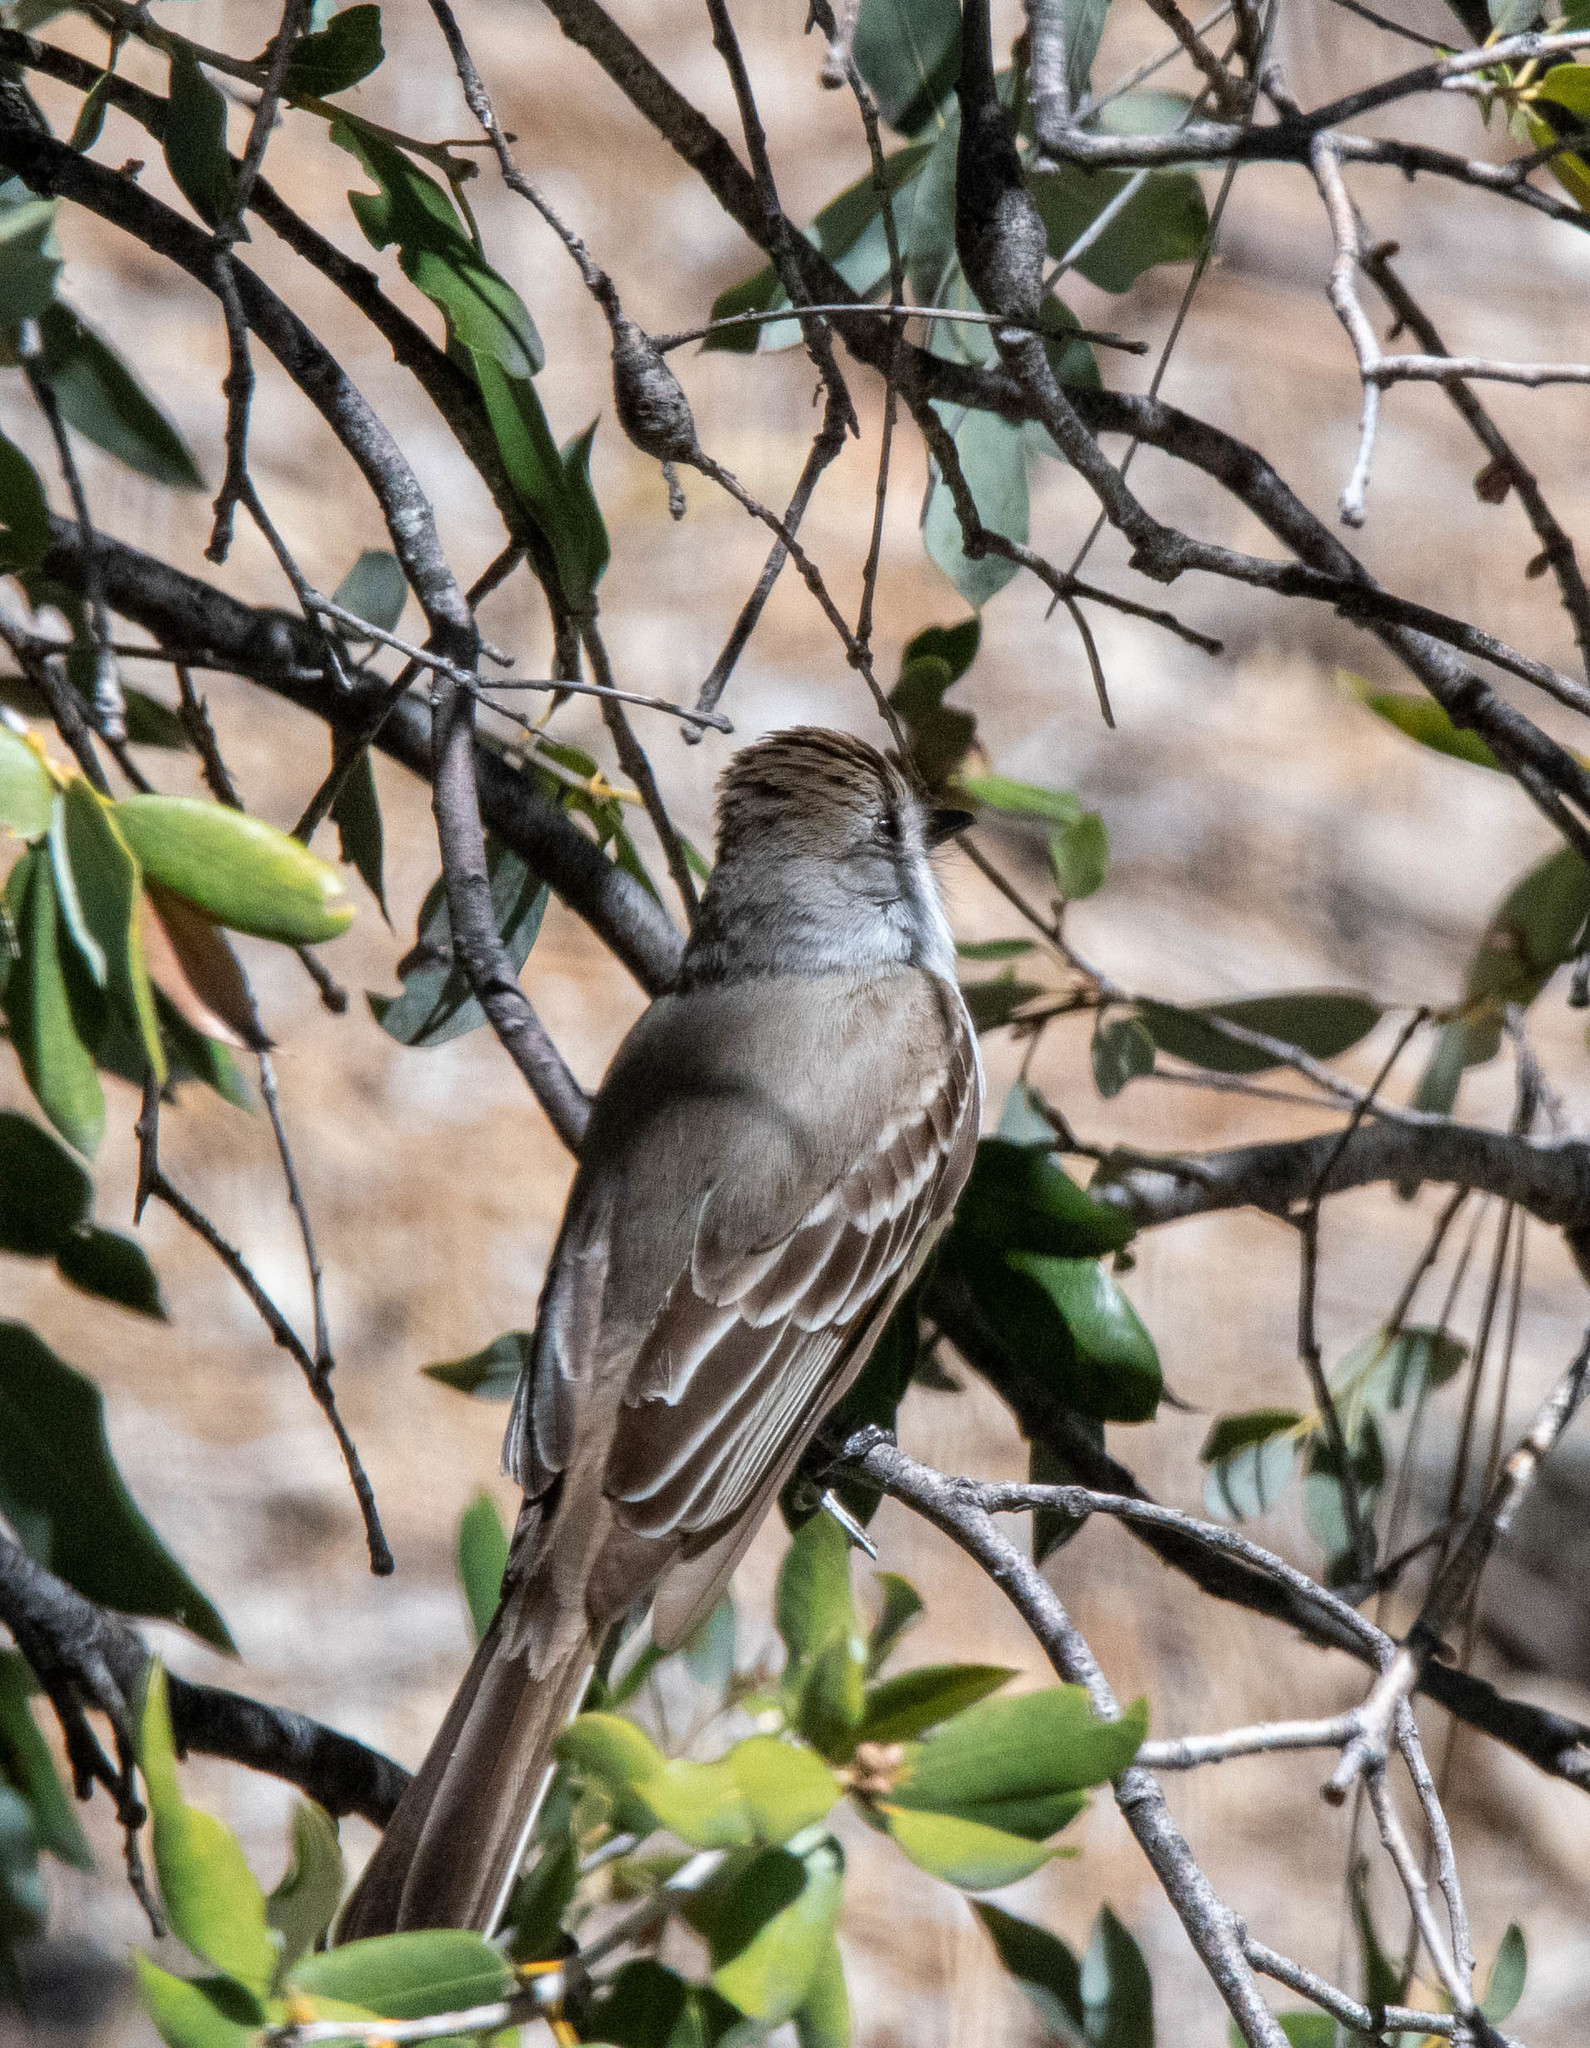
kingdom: Animalia
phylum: Chordata
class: Aves
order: Passeriformes
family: Tyrannidae
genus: Myiarchus
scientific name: Myiarchus cinerascens
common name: Ash-throated flycatcher
